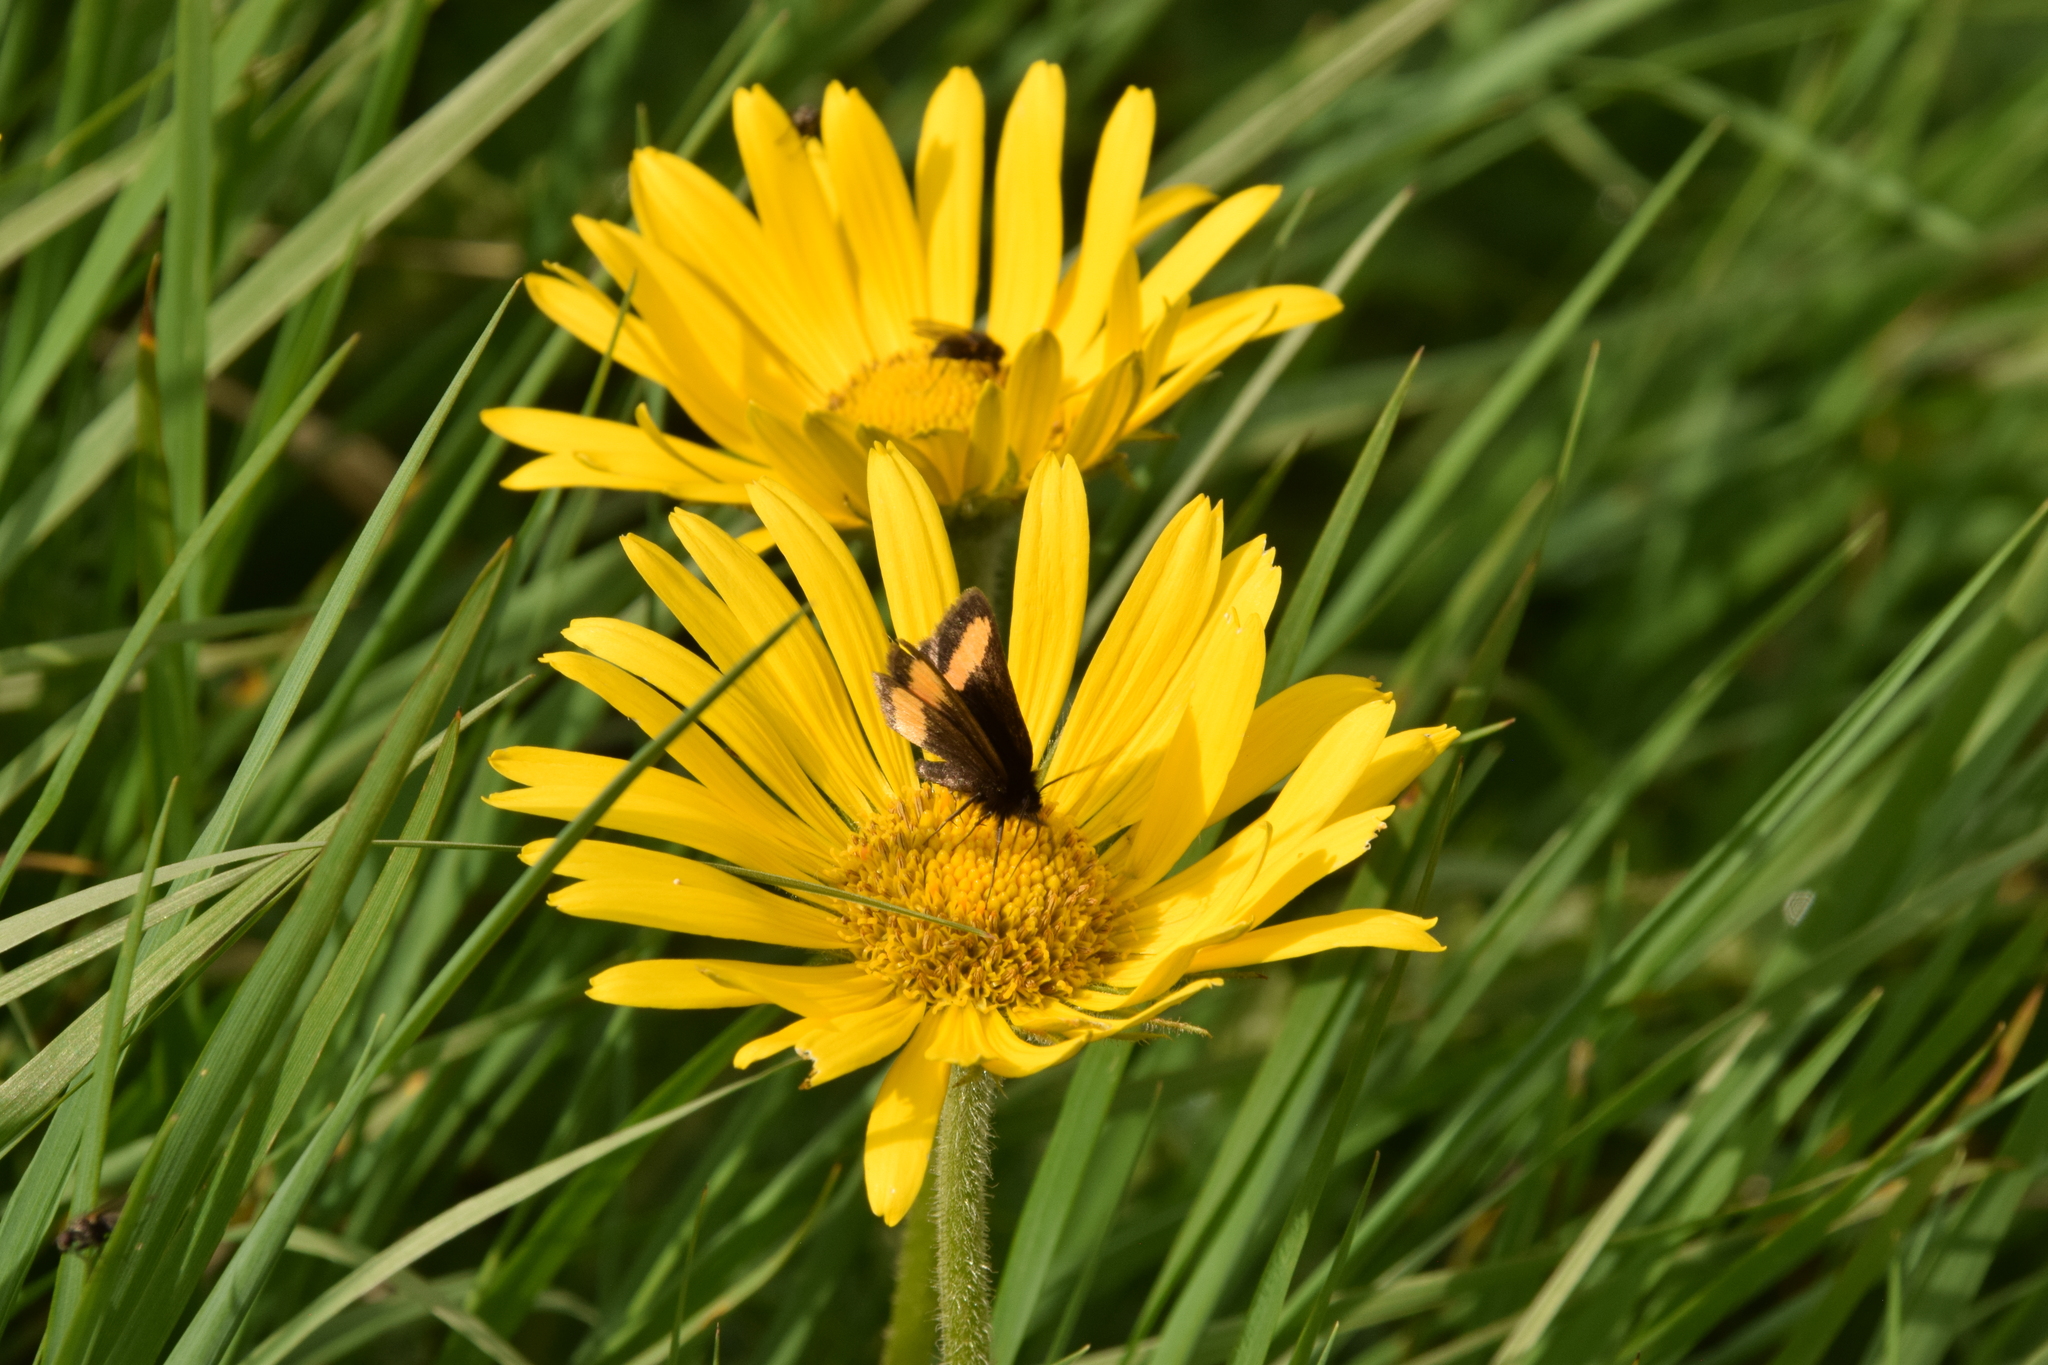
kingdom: Animalia
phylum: Arthropoda
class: Insecta
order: Lepidoptera
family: Geometridae
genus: Psodos
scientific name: Psodos quadrifaria
